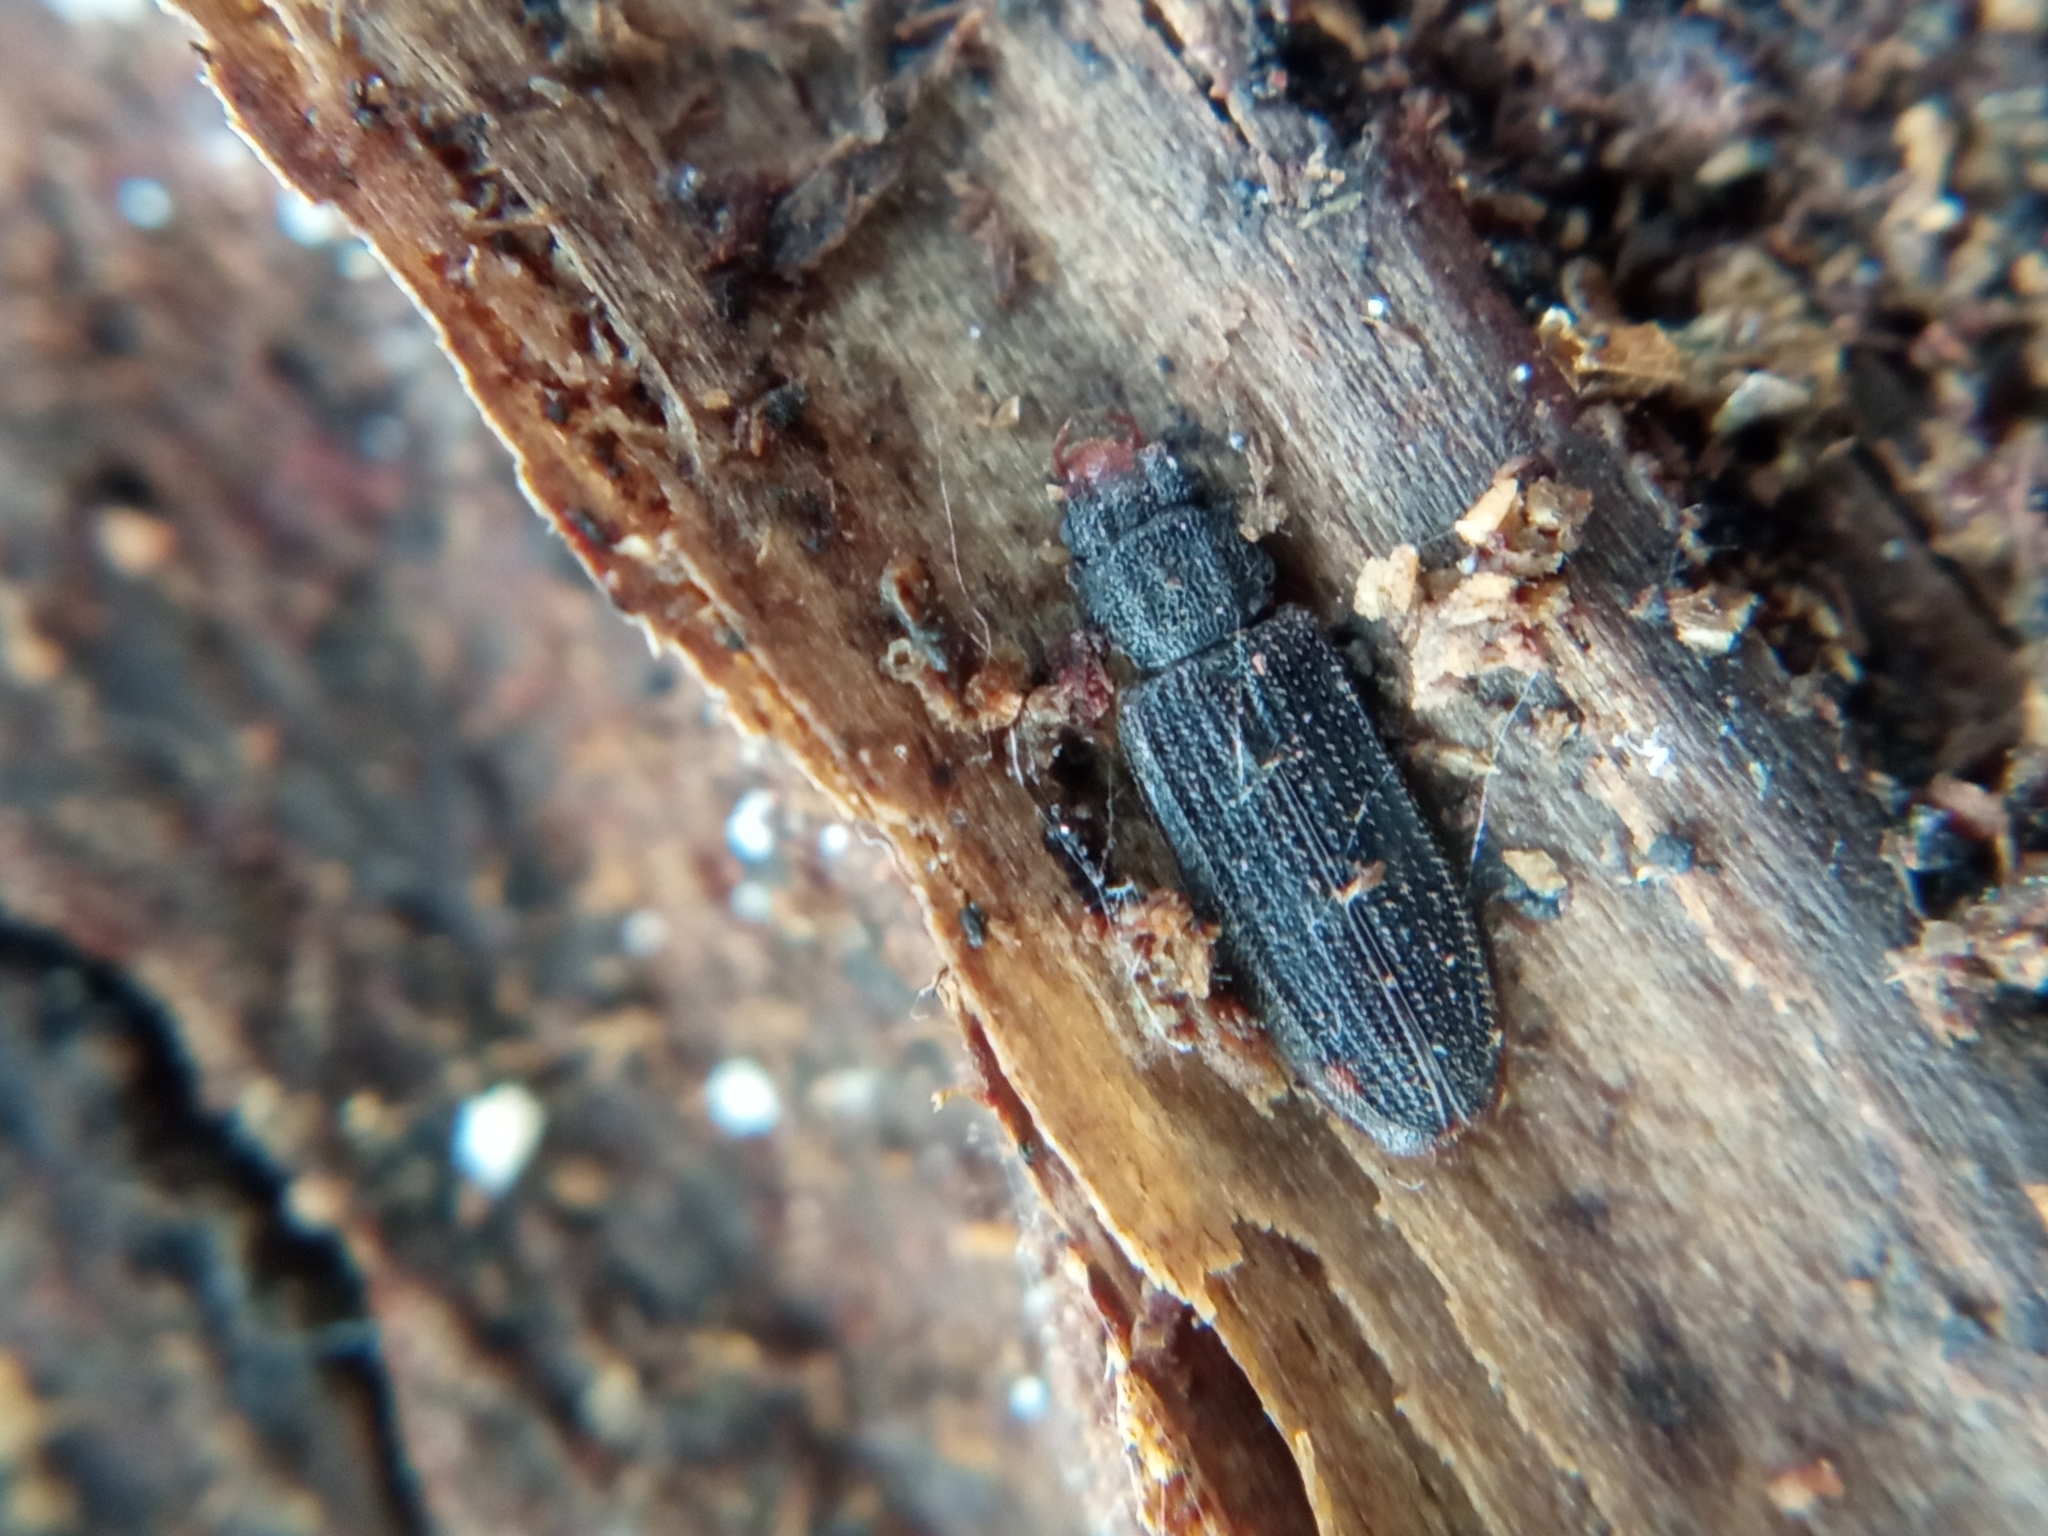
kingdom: Animalia
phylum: Arthropoda
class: Insecta
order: Coleoptera
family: Silvanidae
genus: Uleiota
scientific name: Uleiota planatus
